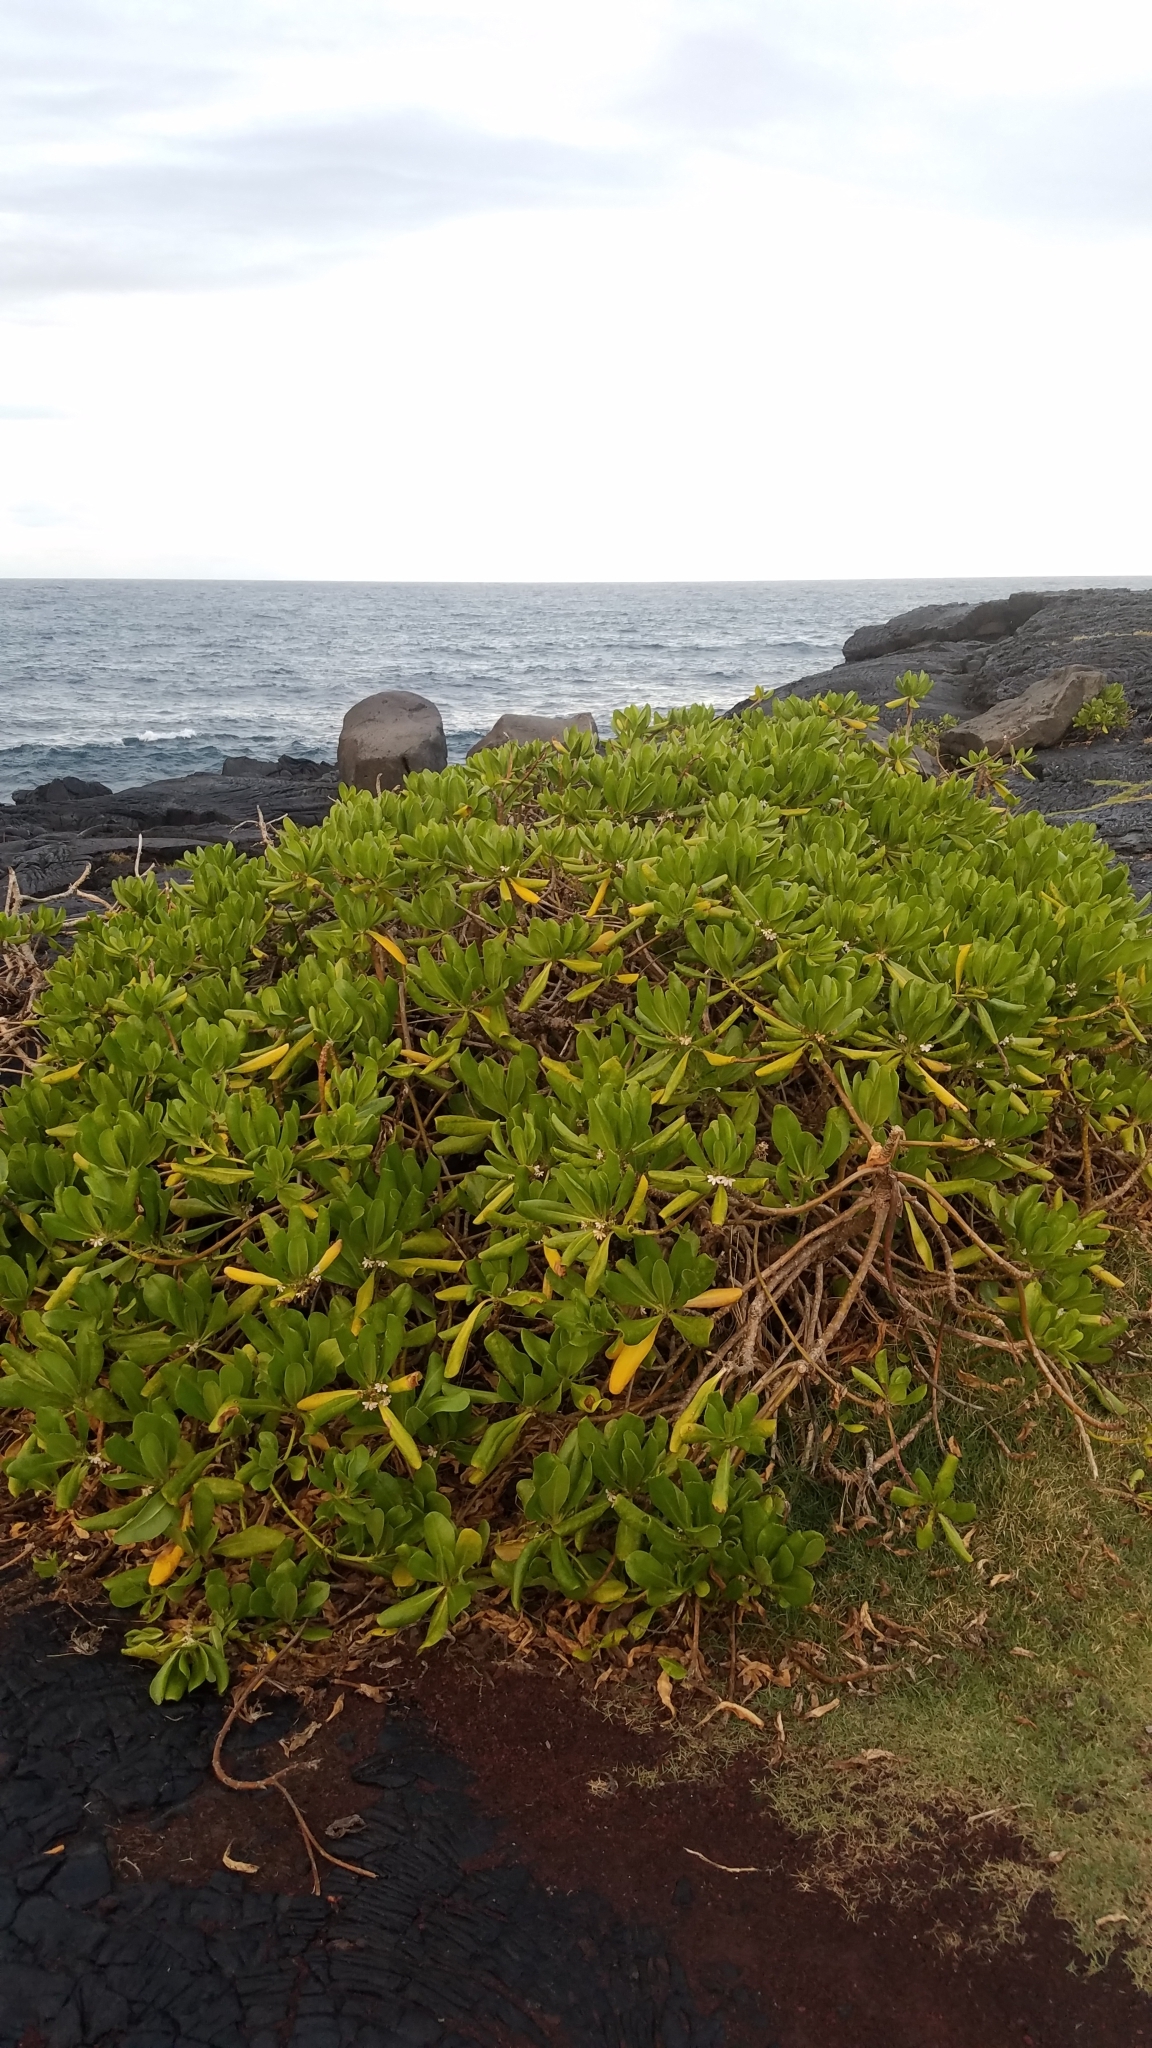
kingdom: Plantae
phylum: Tracheophyta
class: Magnoliopsida
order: Asterales
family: Goodeniaceae
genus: Scaevola
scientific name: Scaevola taccada
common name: Sea lettucetree
